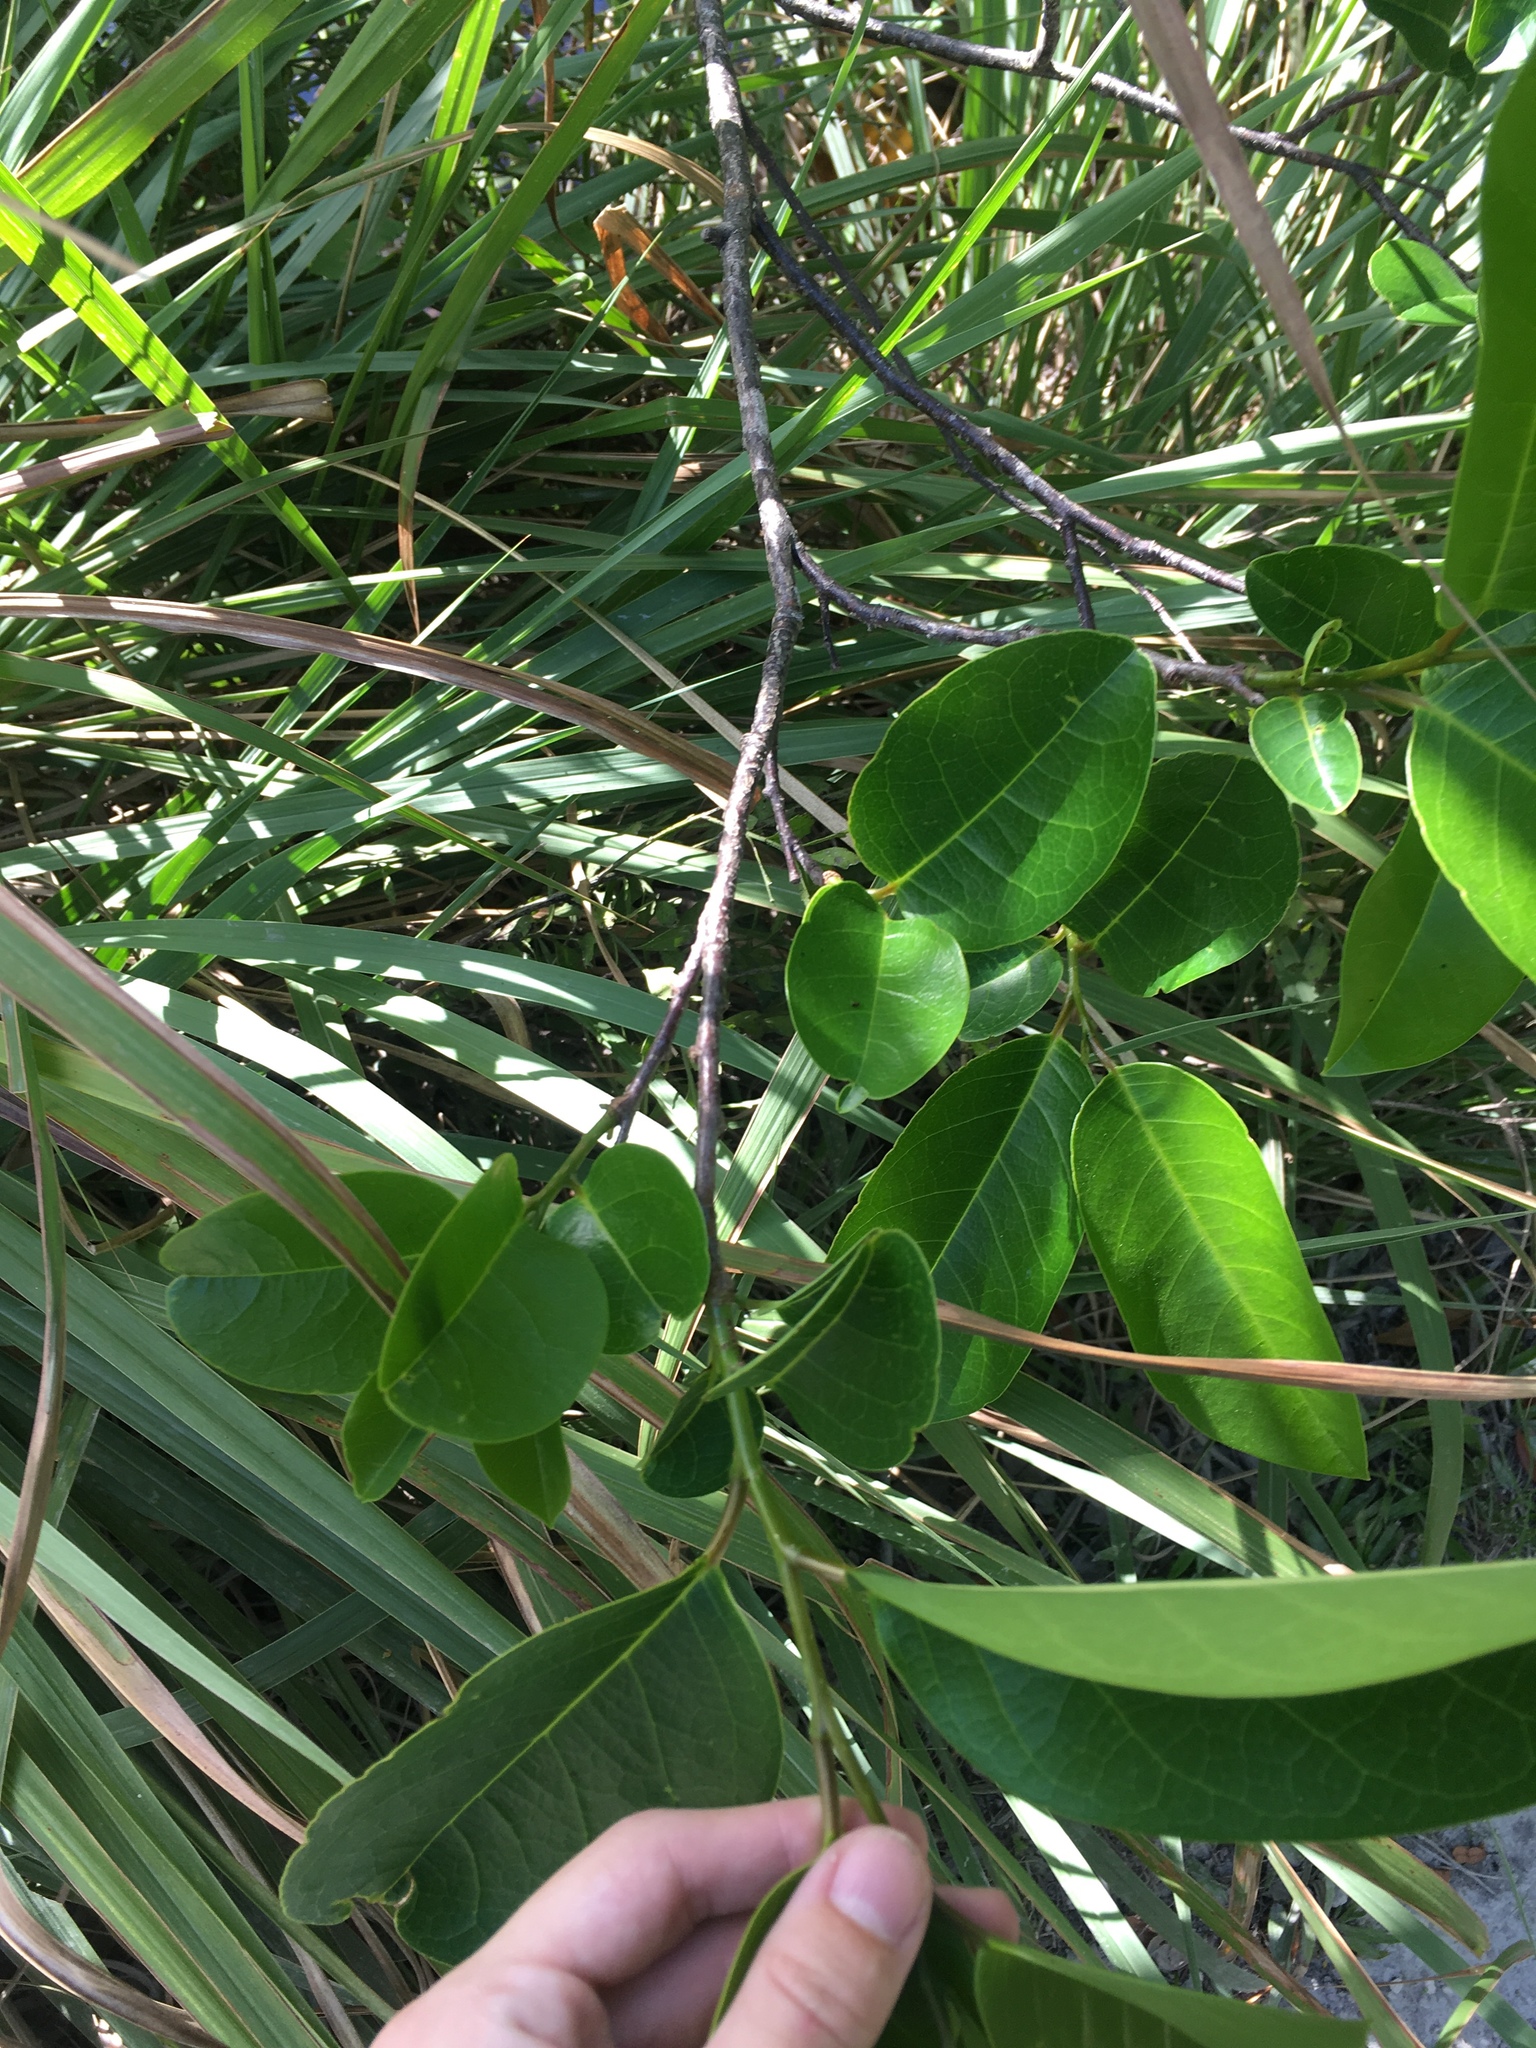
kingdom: Plantae
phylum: Tracheophyta
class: Magnoliopsida
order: Magnoliales
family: Annonaceae
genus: Annona
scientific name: Annona glabra
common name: Monkey apple
